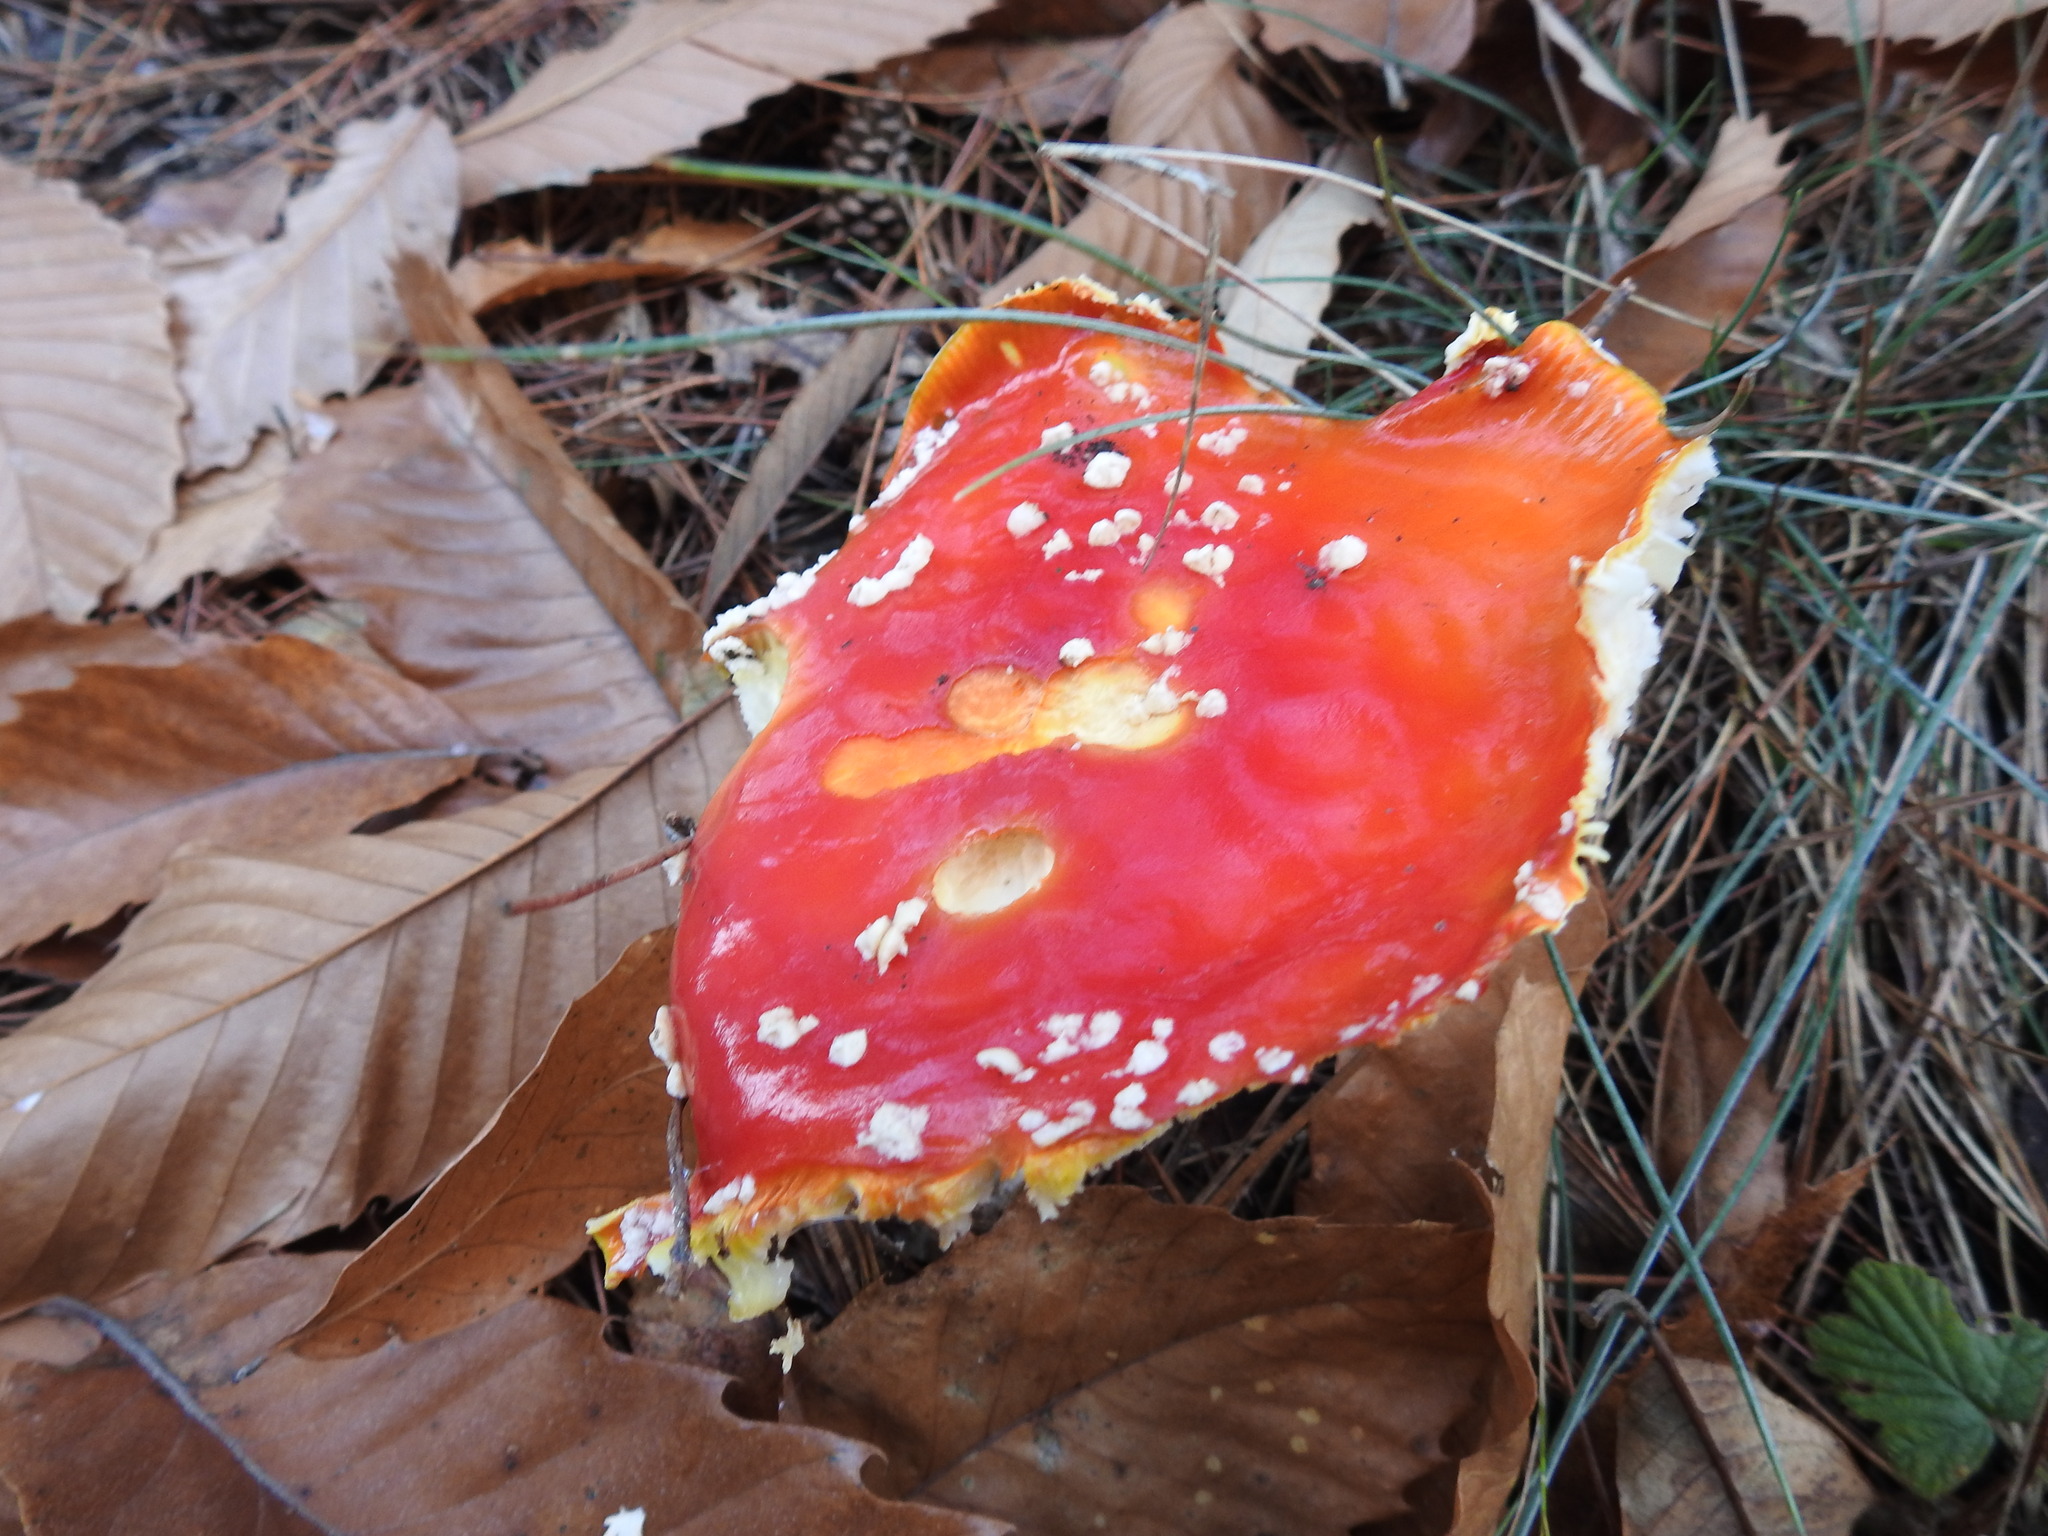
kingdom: Fungi
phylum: Basidiomycota
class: Agaricomycetes
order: Agaricales
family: Amanitaceae
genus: Amanita
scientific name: Amanita muscaria
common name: Fly agaric
